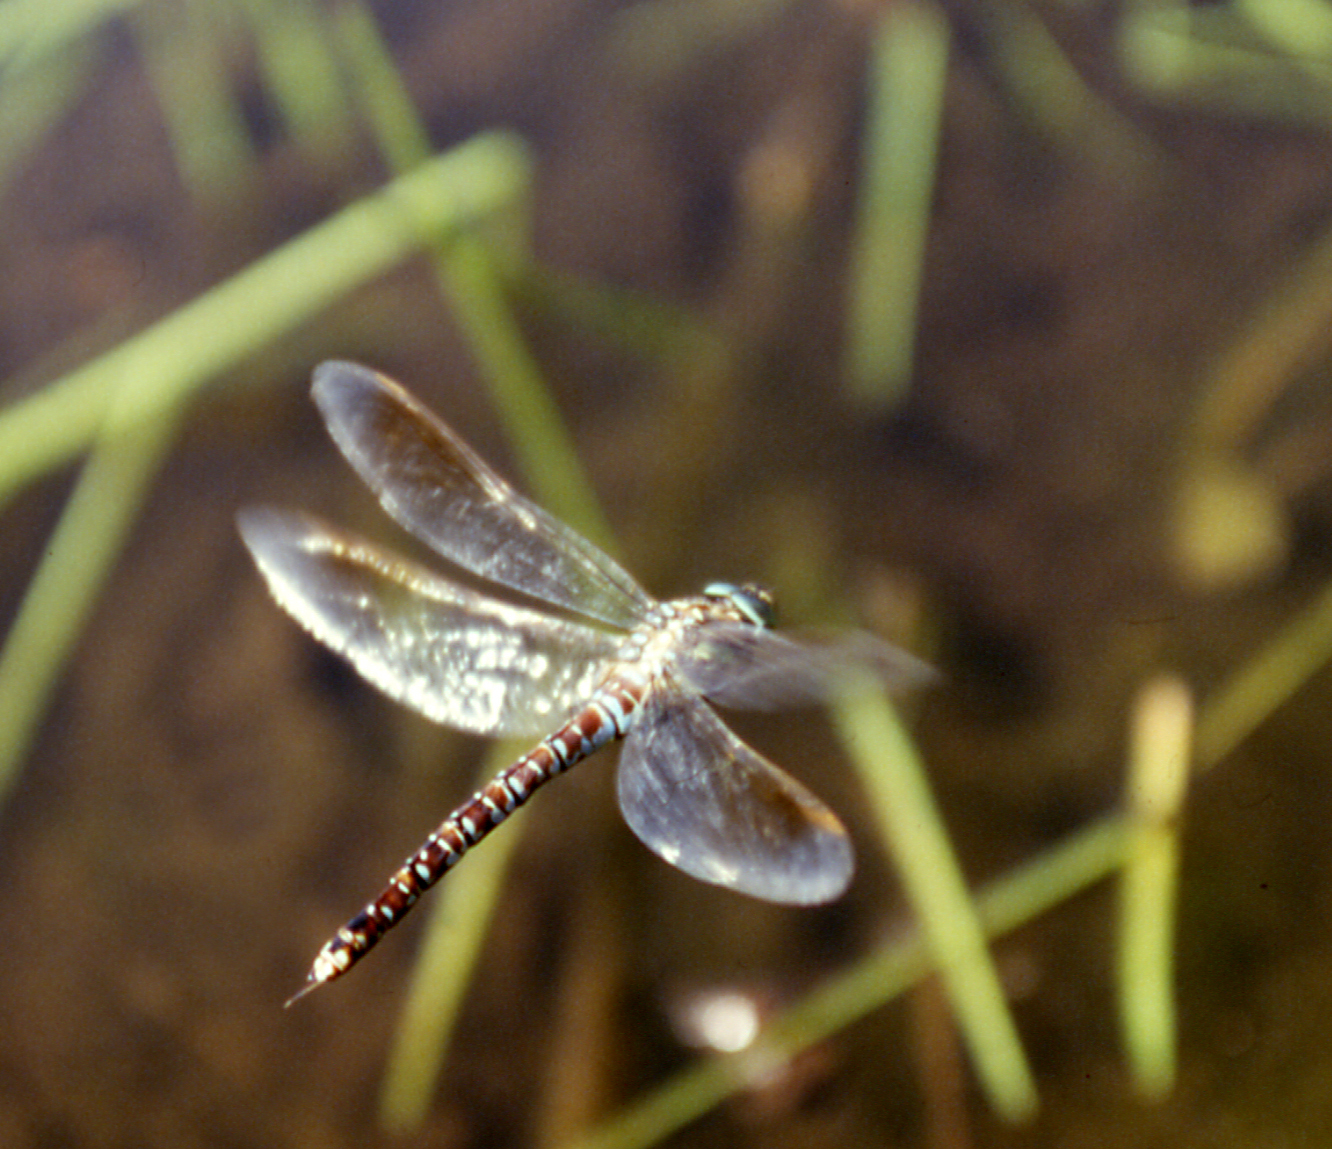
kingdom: Animalia
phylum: Arthropoda
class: Insecta
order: Odonata
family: Aeshnidae
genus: Aeshna
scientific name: Aeshna crenata
